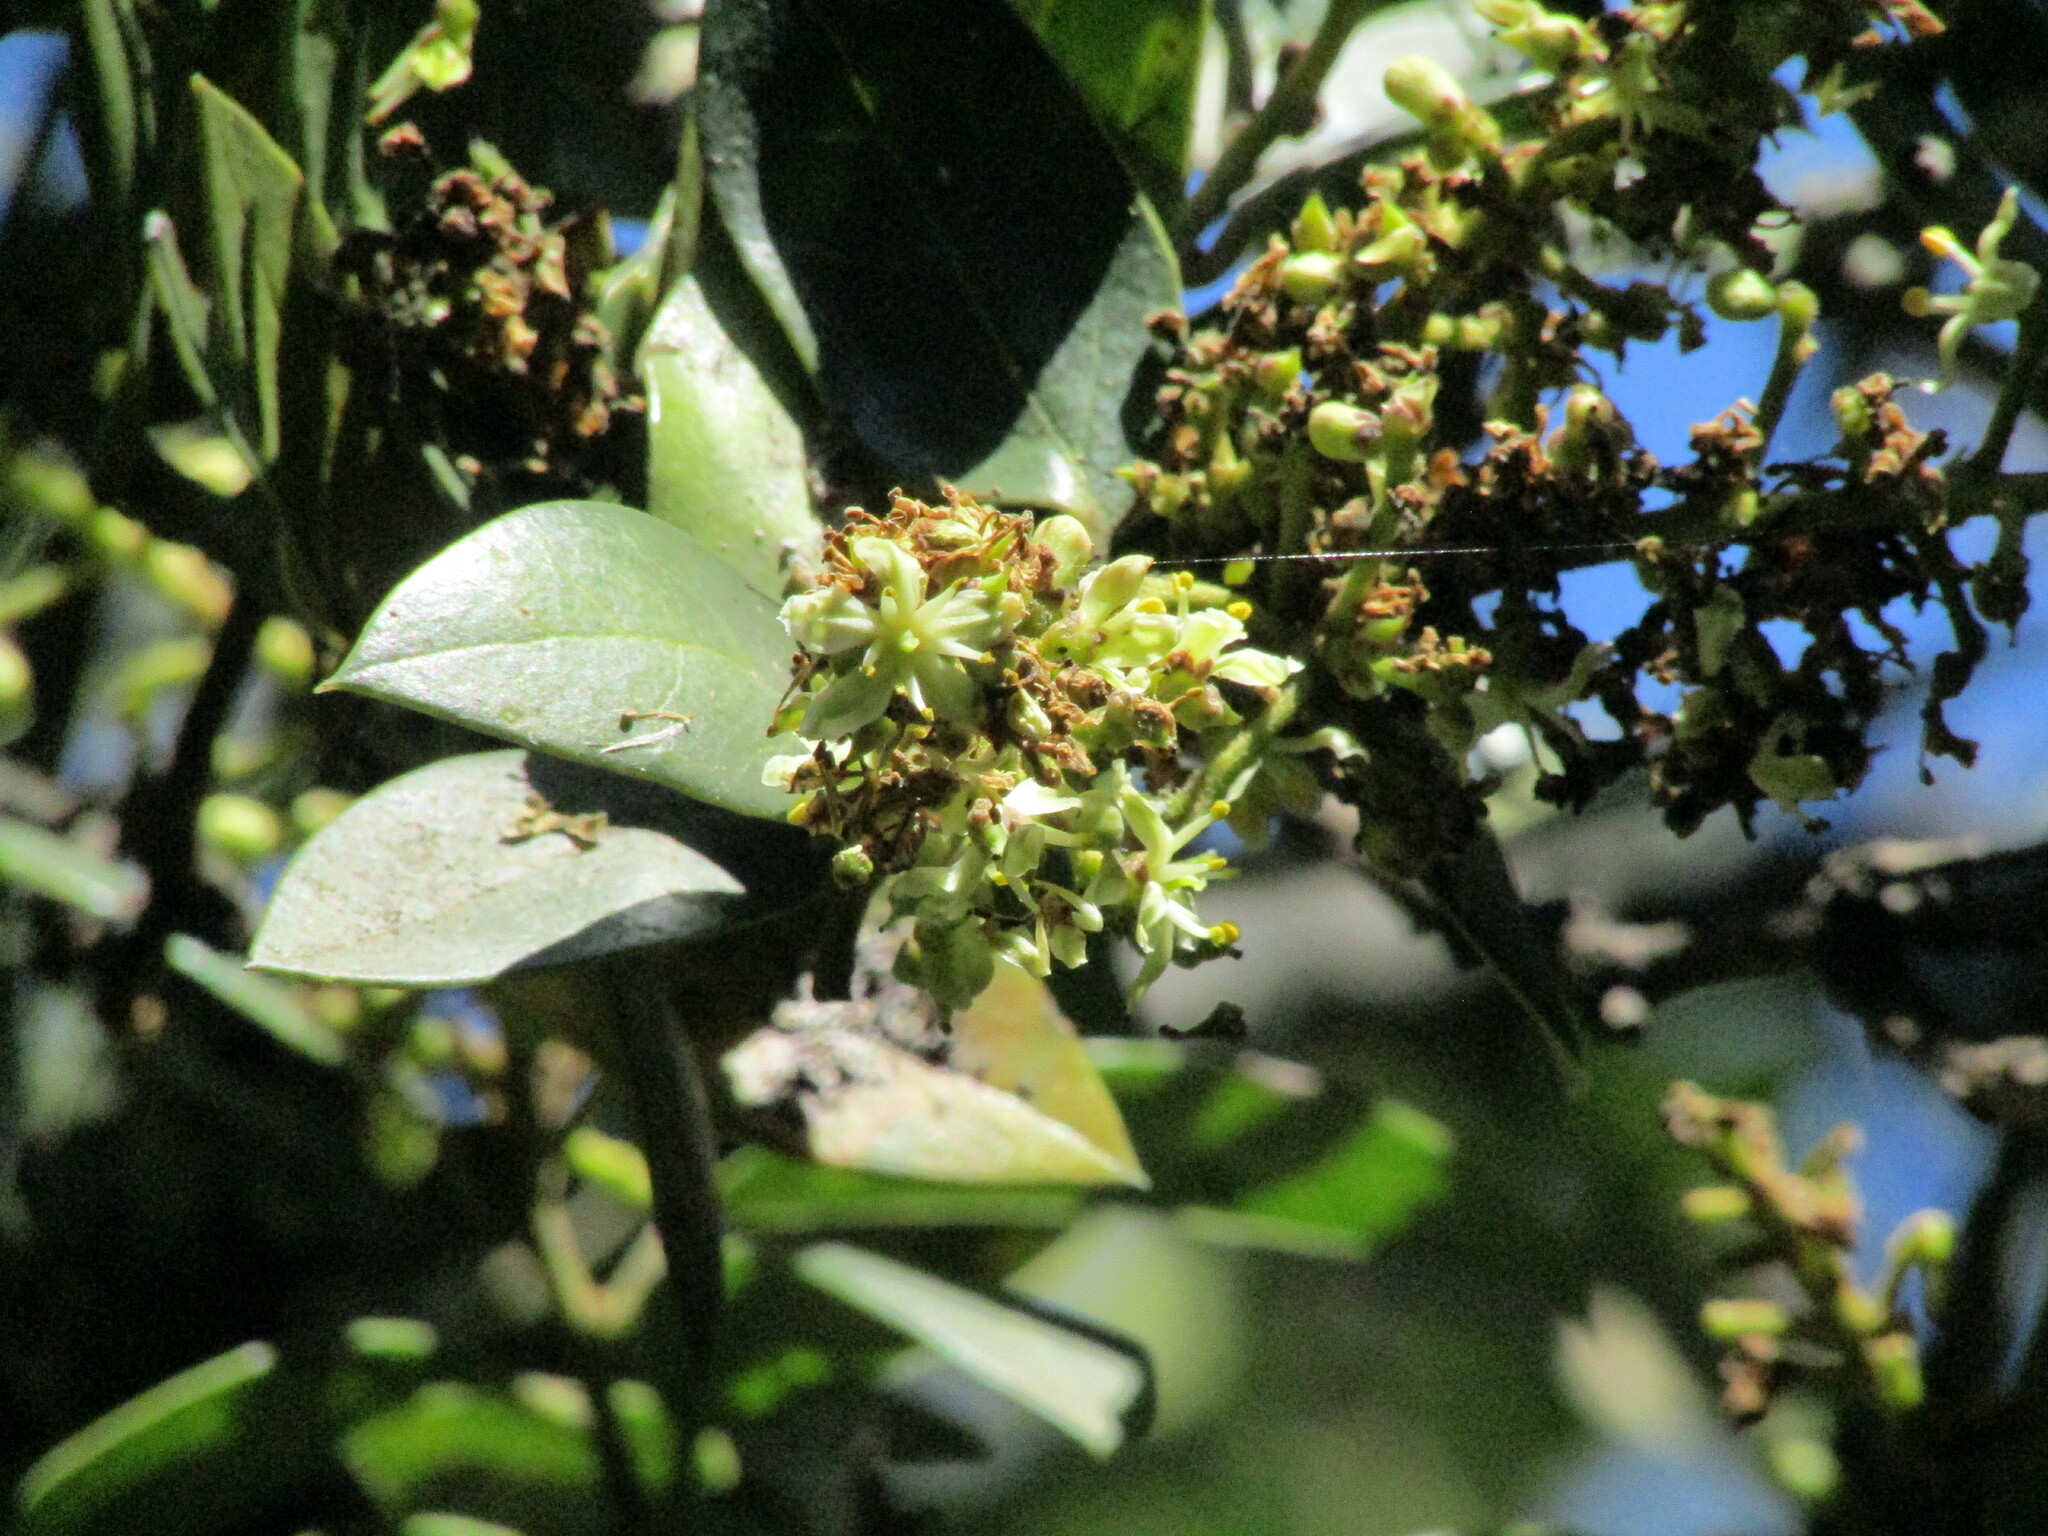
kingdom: Plantae
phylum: Tracheophyta
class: Magnoliopsida
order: Cardiopteridales
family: Cardiopteridaceae
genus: Citronella
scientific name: Citronella mucronata
